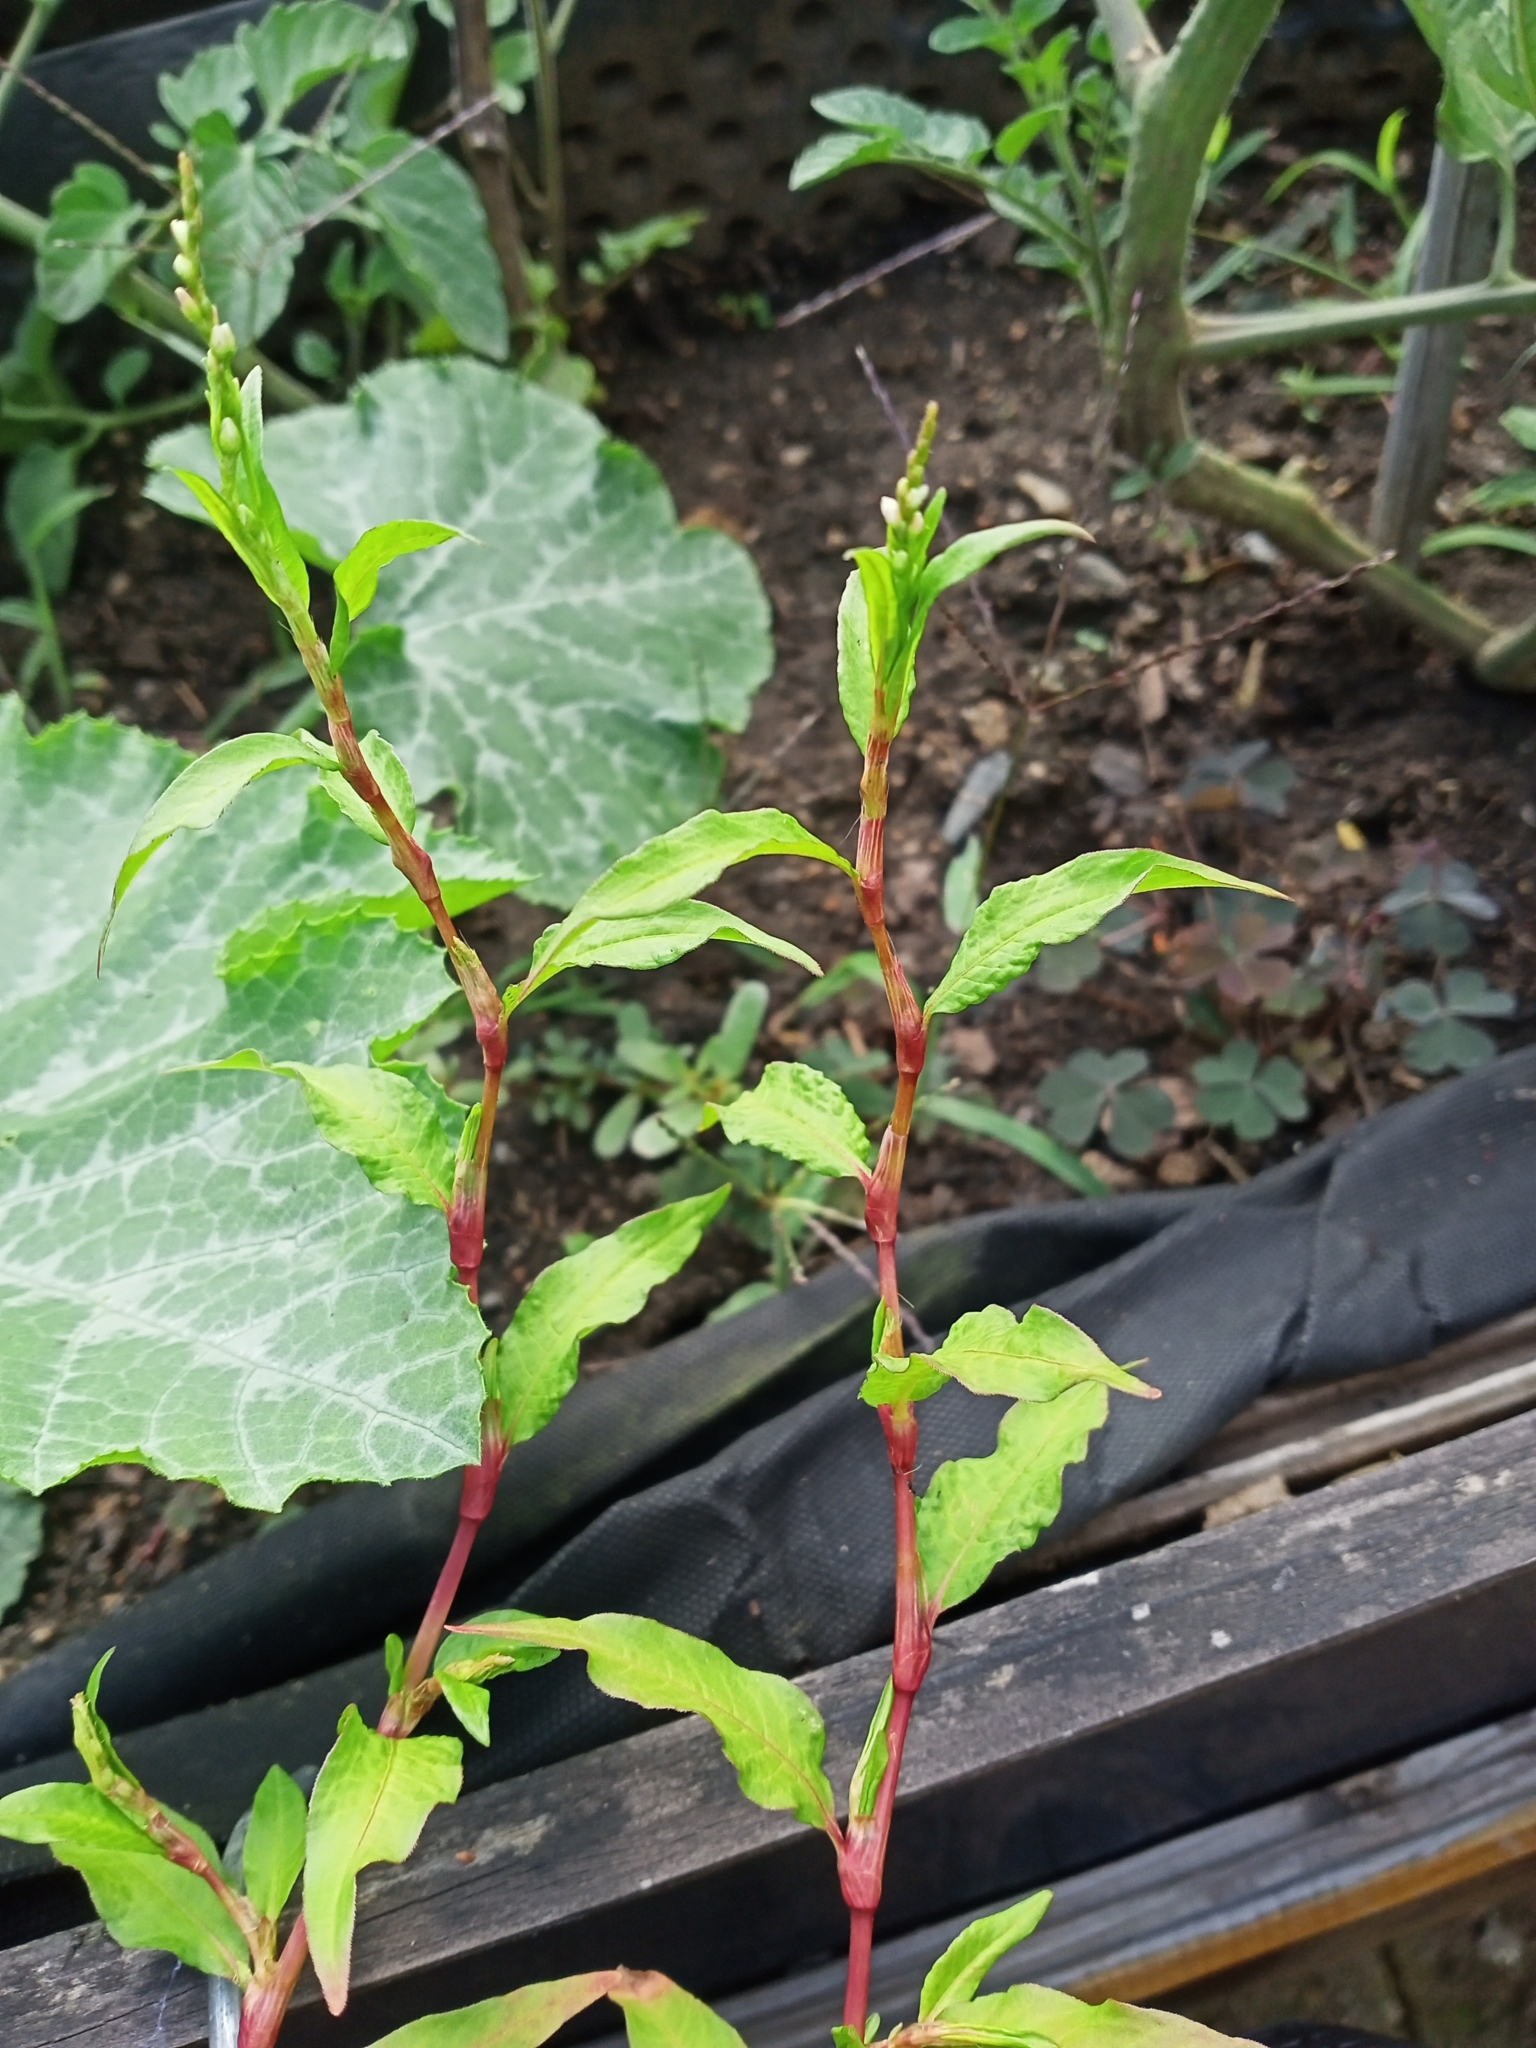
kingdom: Plantae
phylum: Tracheophyta
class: Magnoliopsida
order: Caryophyllales
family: Polygonaceae
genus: Persicaria
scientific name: Persicaria hydropiper
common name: Water-pepper
